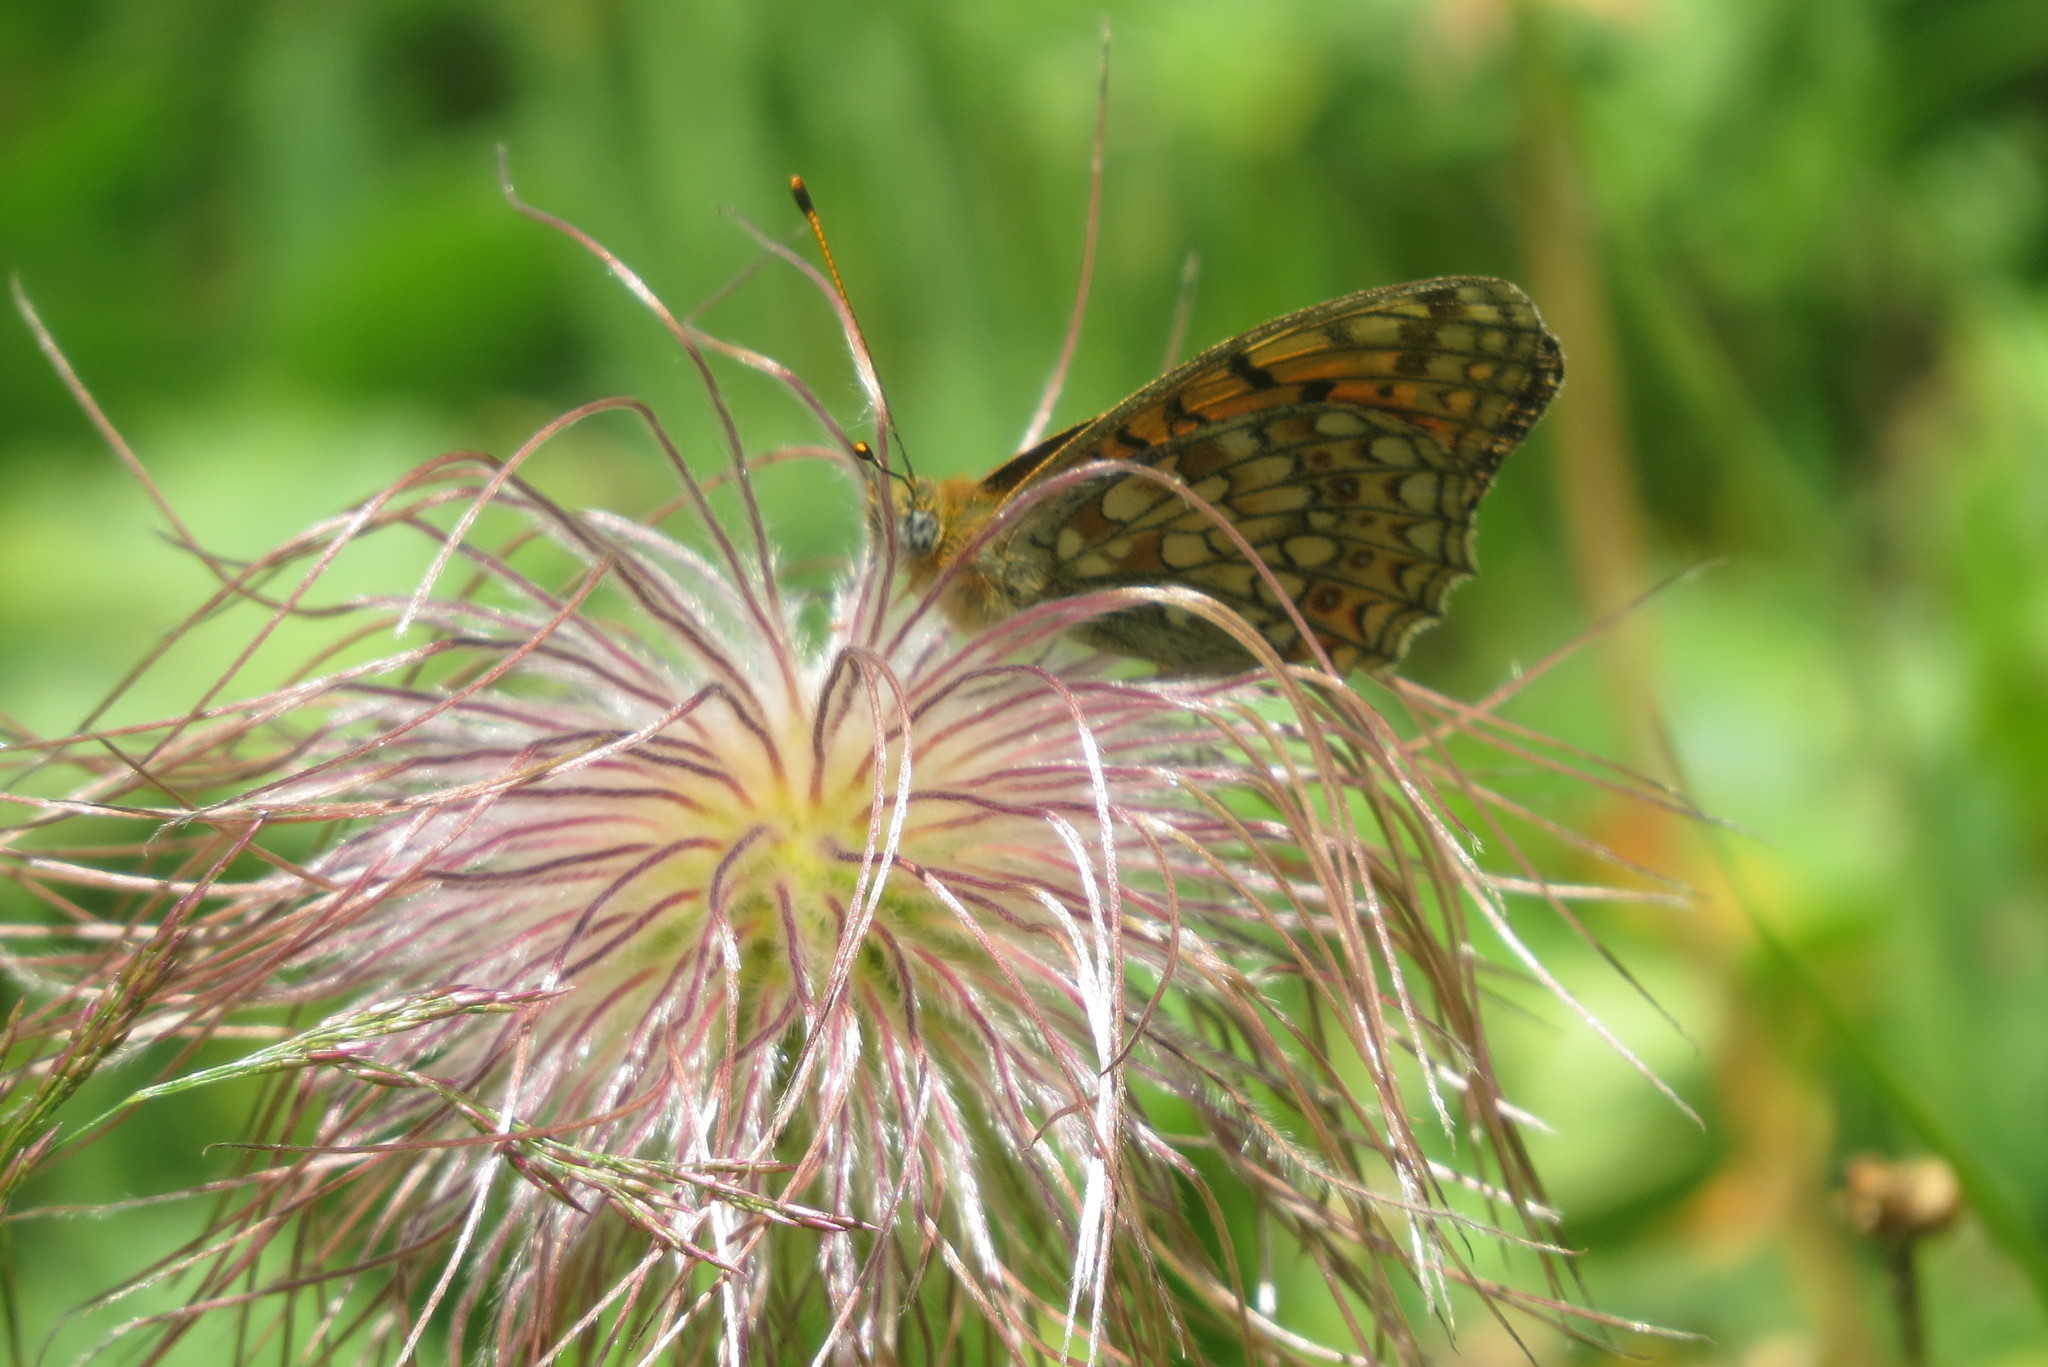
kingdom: Animalia
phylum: Arthropoda
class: Insecta
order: Lepidoptera
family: Nymphalidae
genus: Fabriciana
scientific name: Fabriciana niobe
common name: Niobe fritillary
